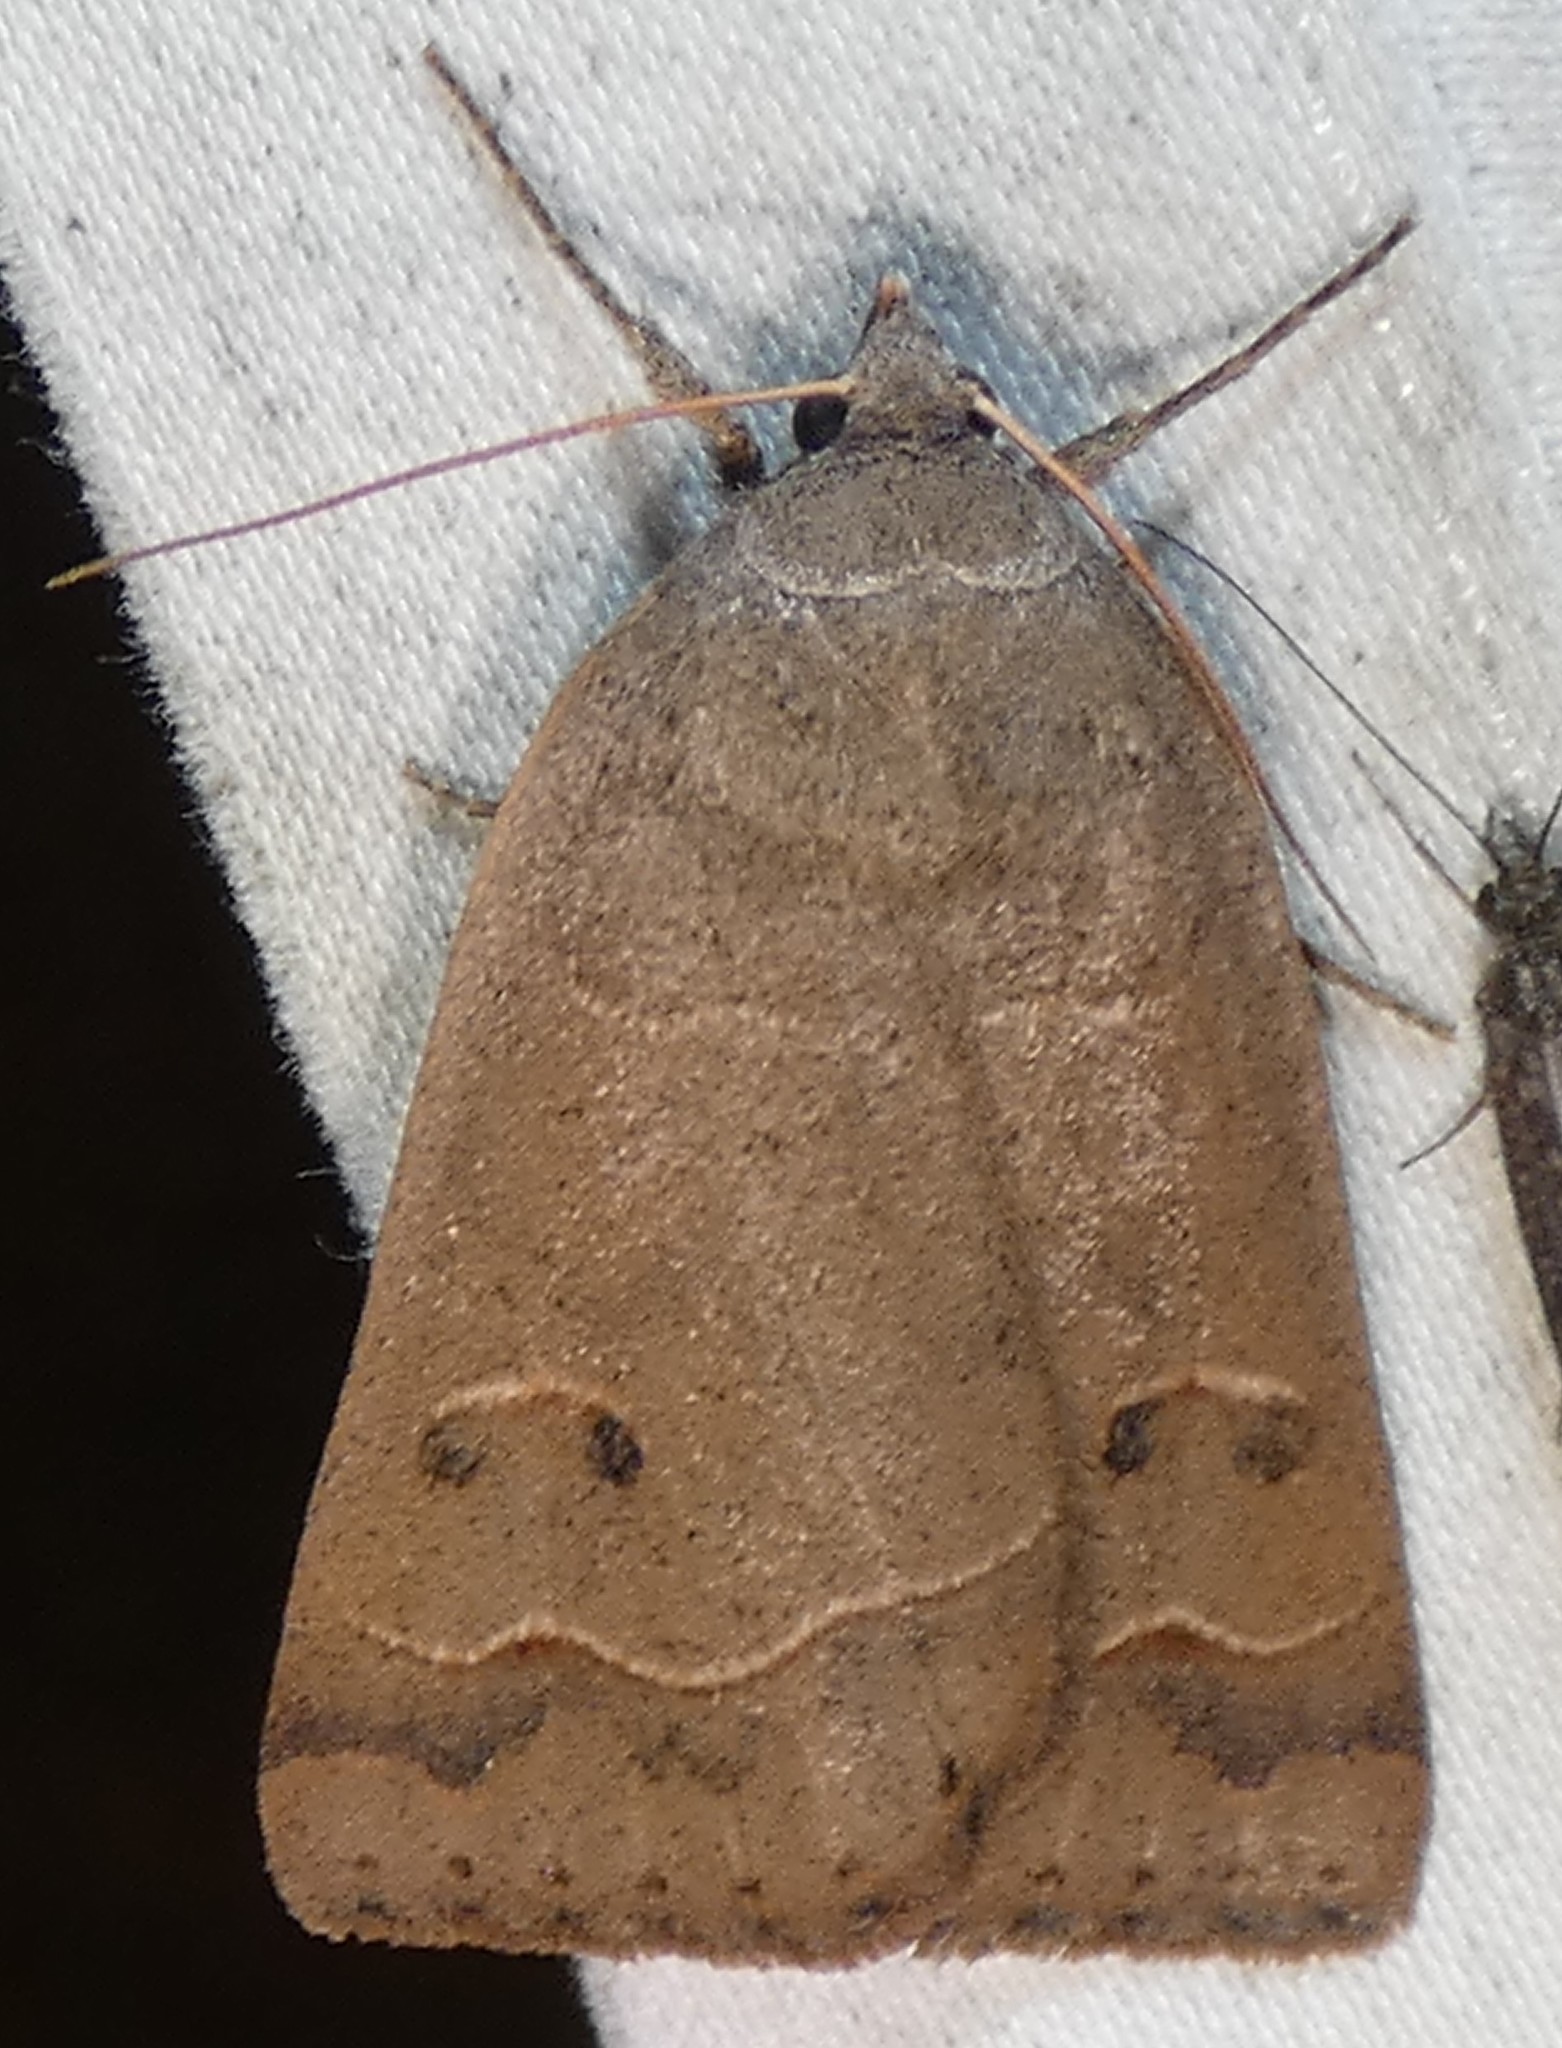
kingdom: Animalia
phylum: Arthropoda
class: Insecta
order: Lepidoptera
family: Erebidae
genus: Phoberia
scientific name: Phoberia atomaris
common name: Common oak moth
